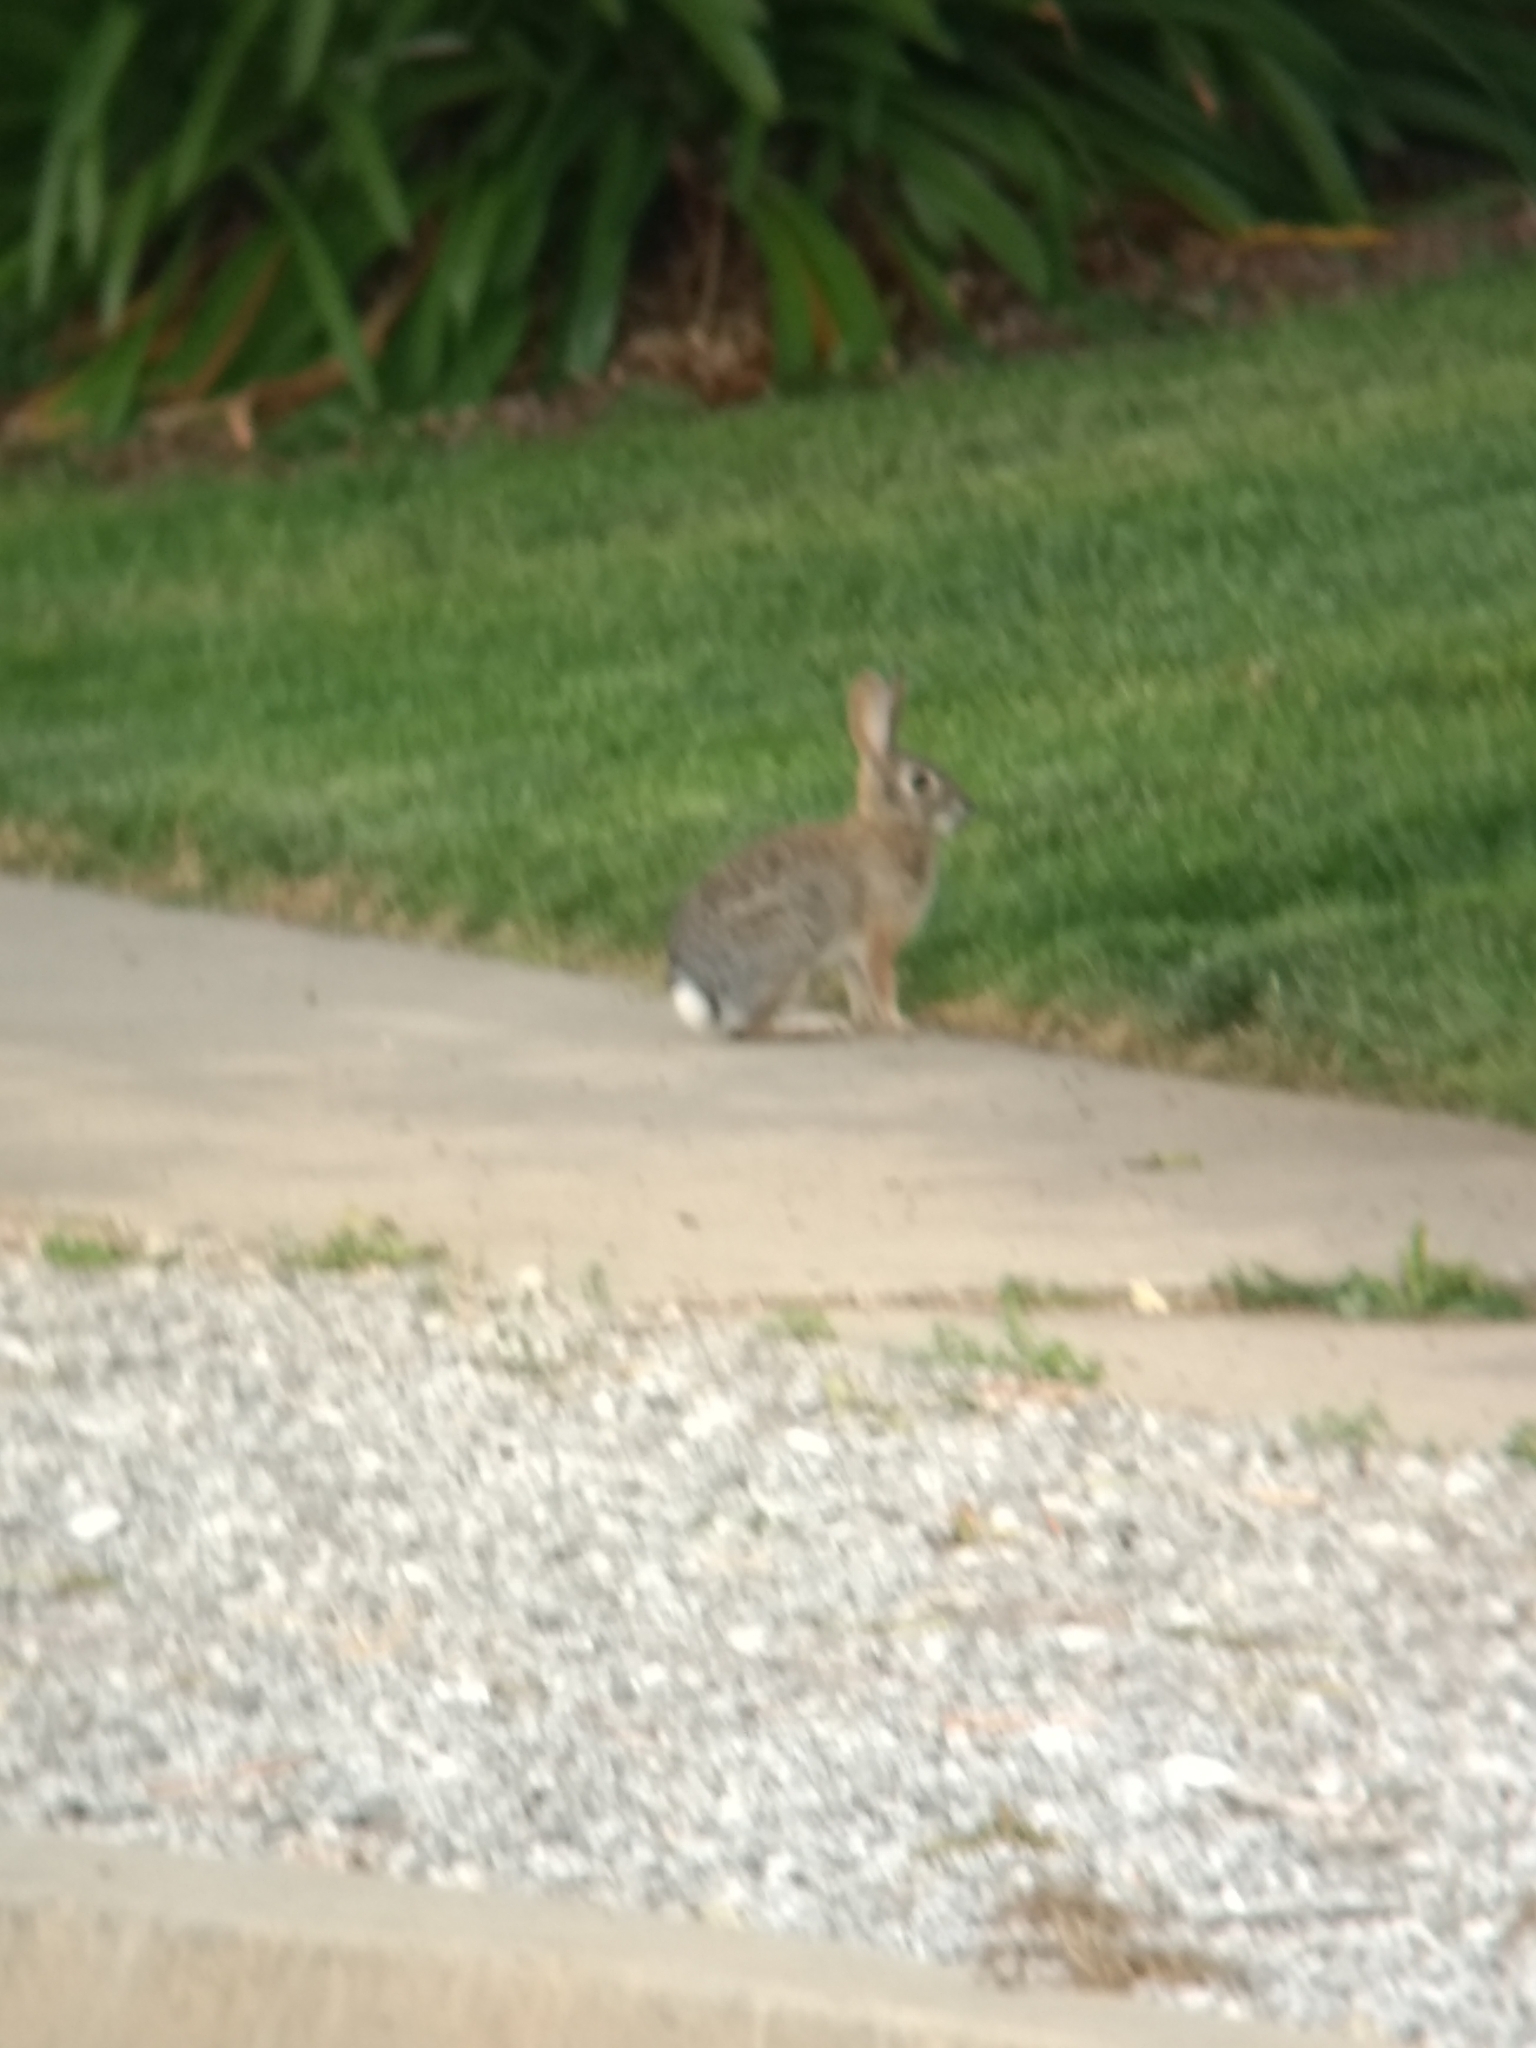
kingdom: Animalia
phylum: Chordata
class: Mammalia
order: Lagomorpha
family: Leporidae
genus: Sylvilagus
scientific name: Sylvilagus audubonii
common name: Desert cottontail
